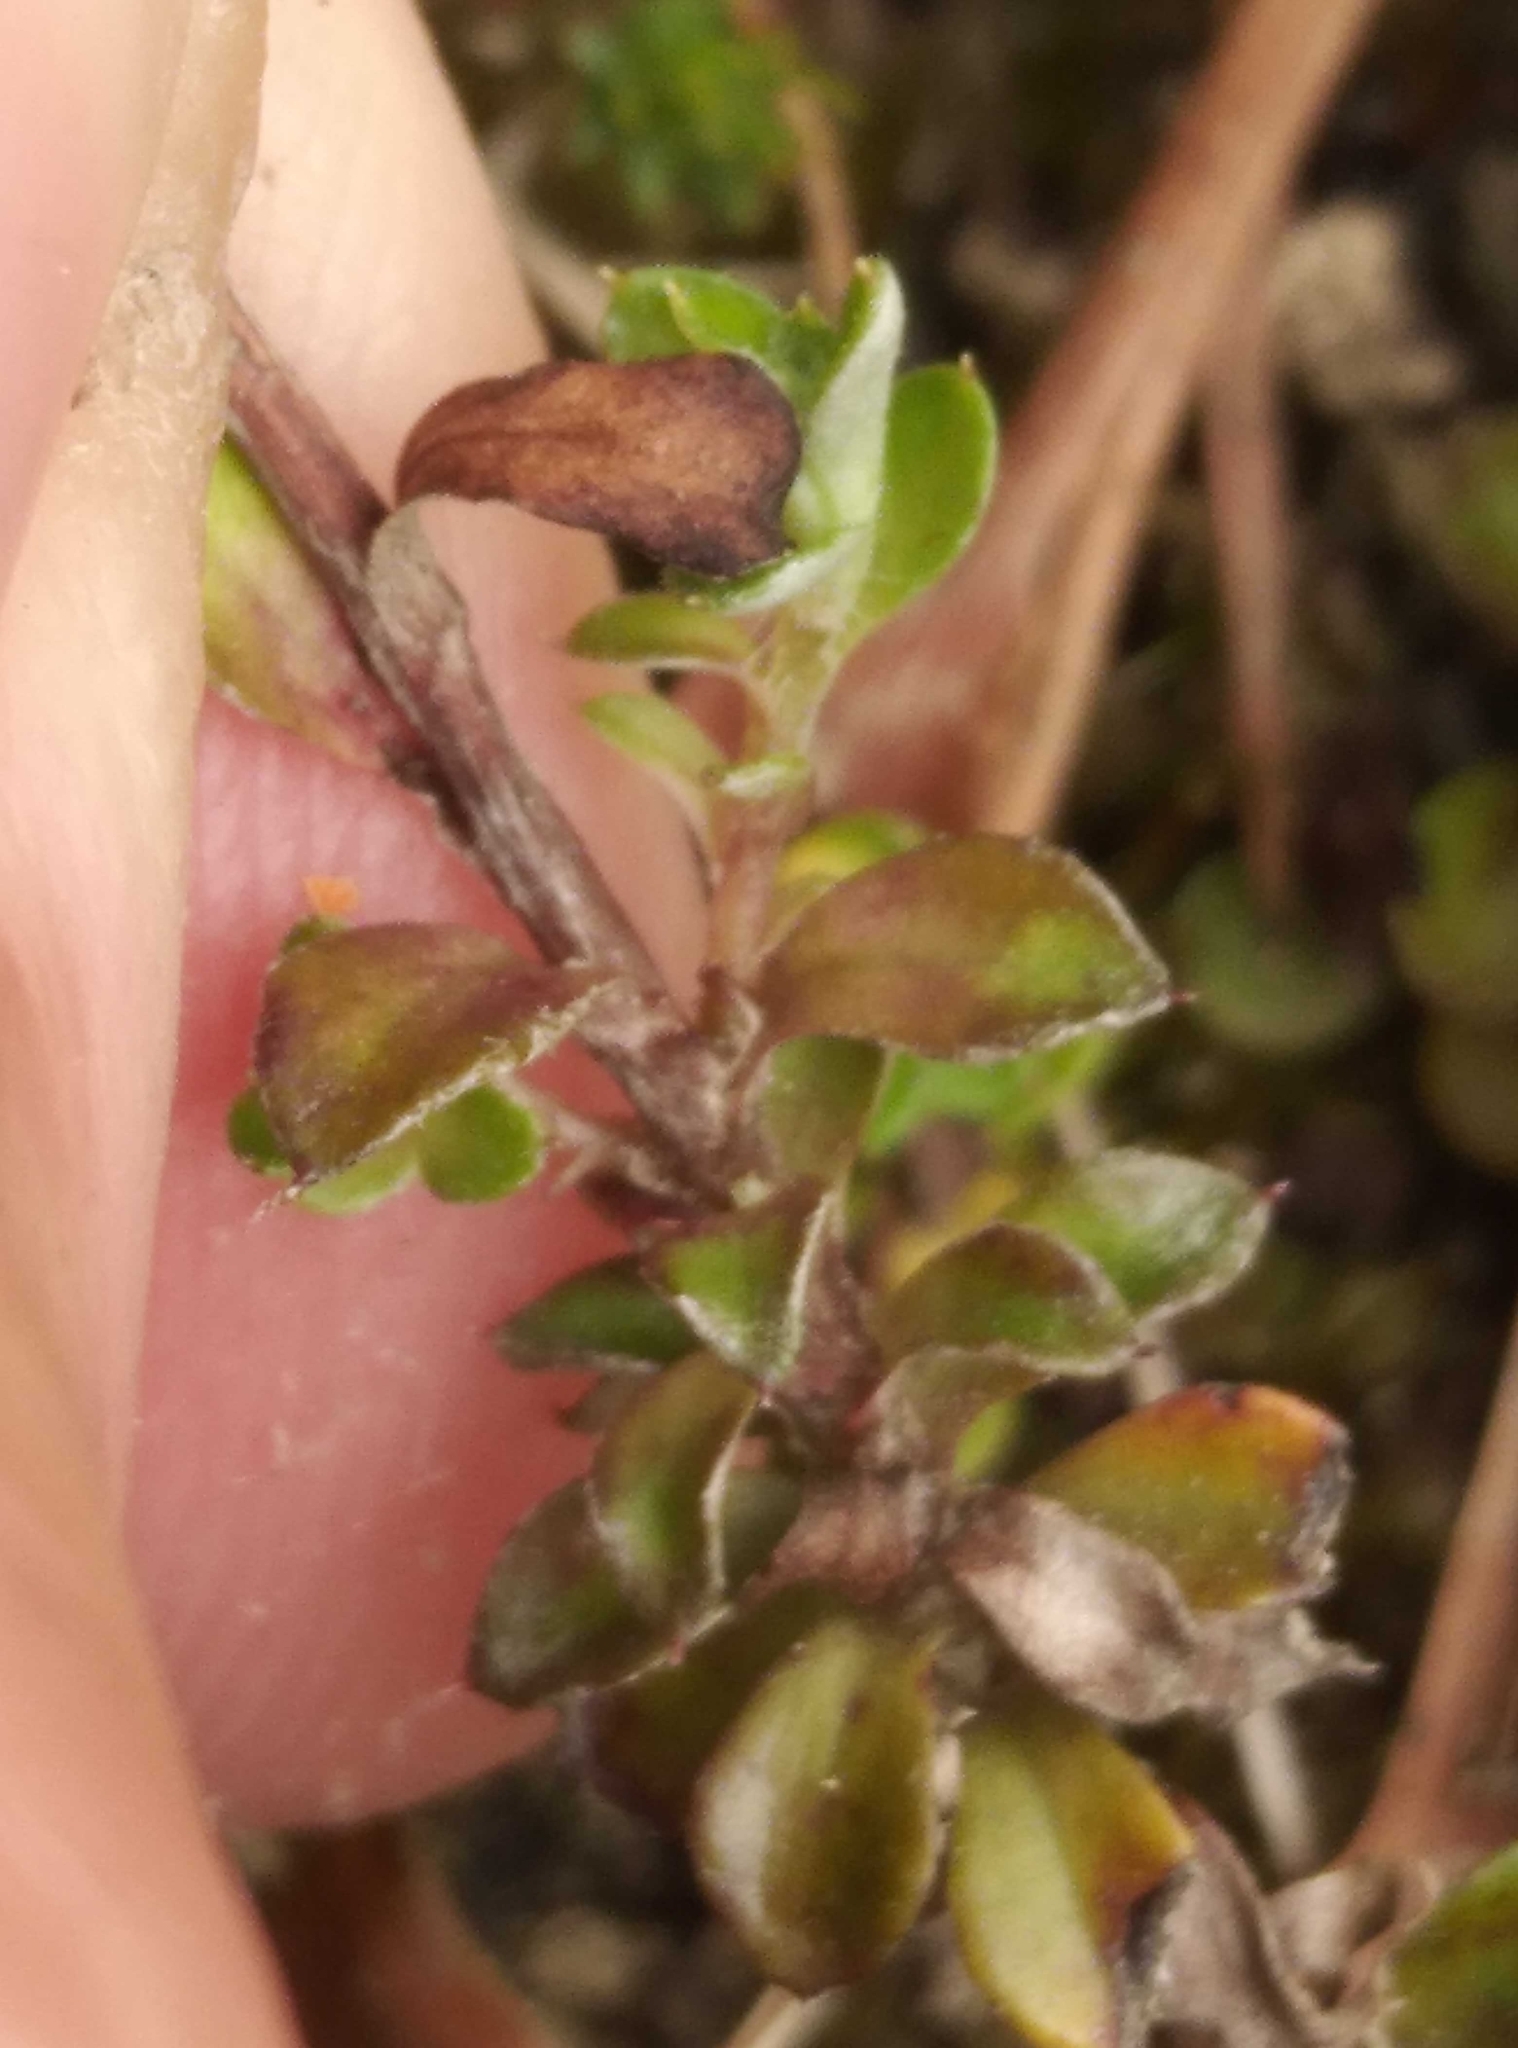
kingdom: Plantae
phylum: Tracheophyta
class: Magnoliopsida
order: Asterales
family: Asteraceae
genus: Anaphalioides
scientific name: Anaphalioides bellidioides
